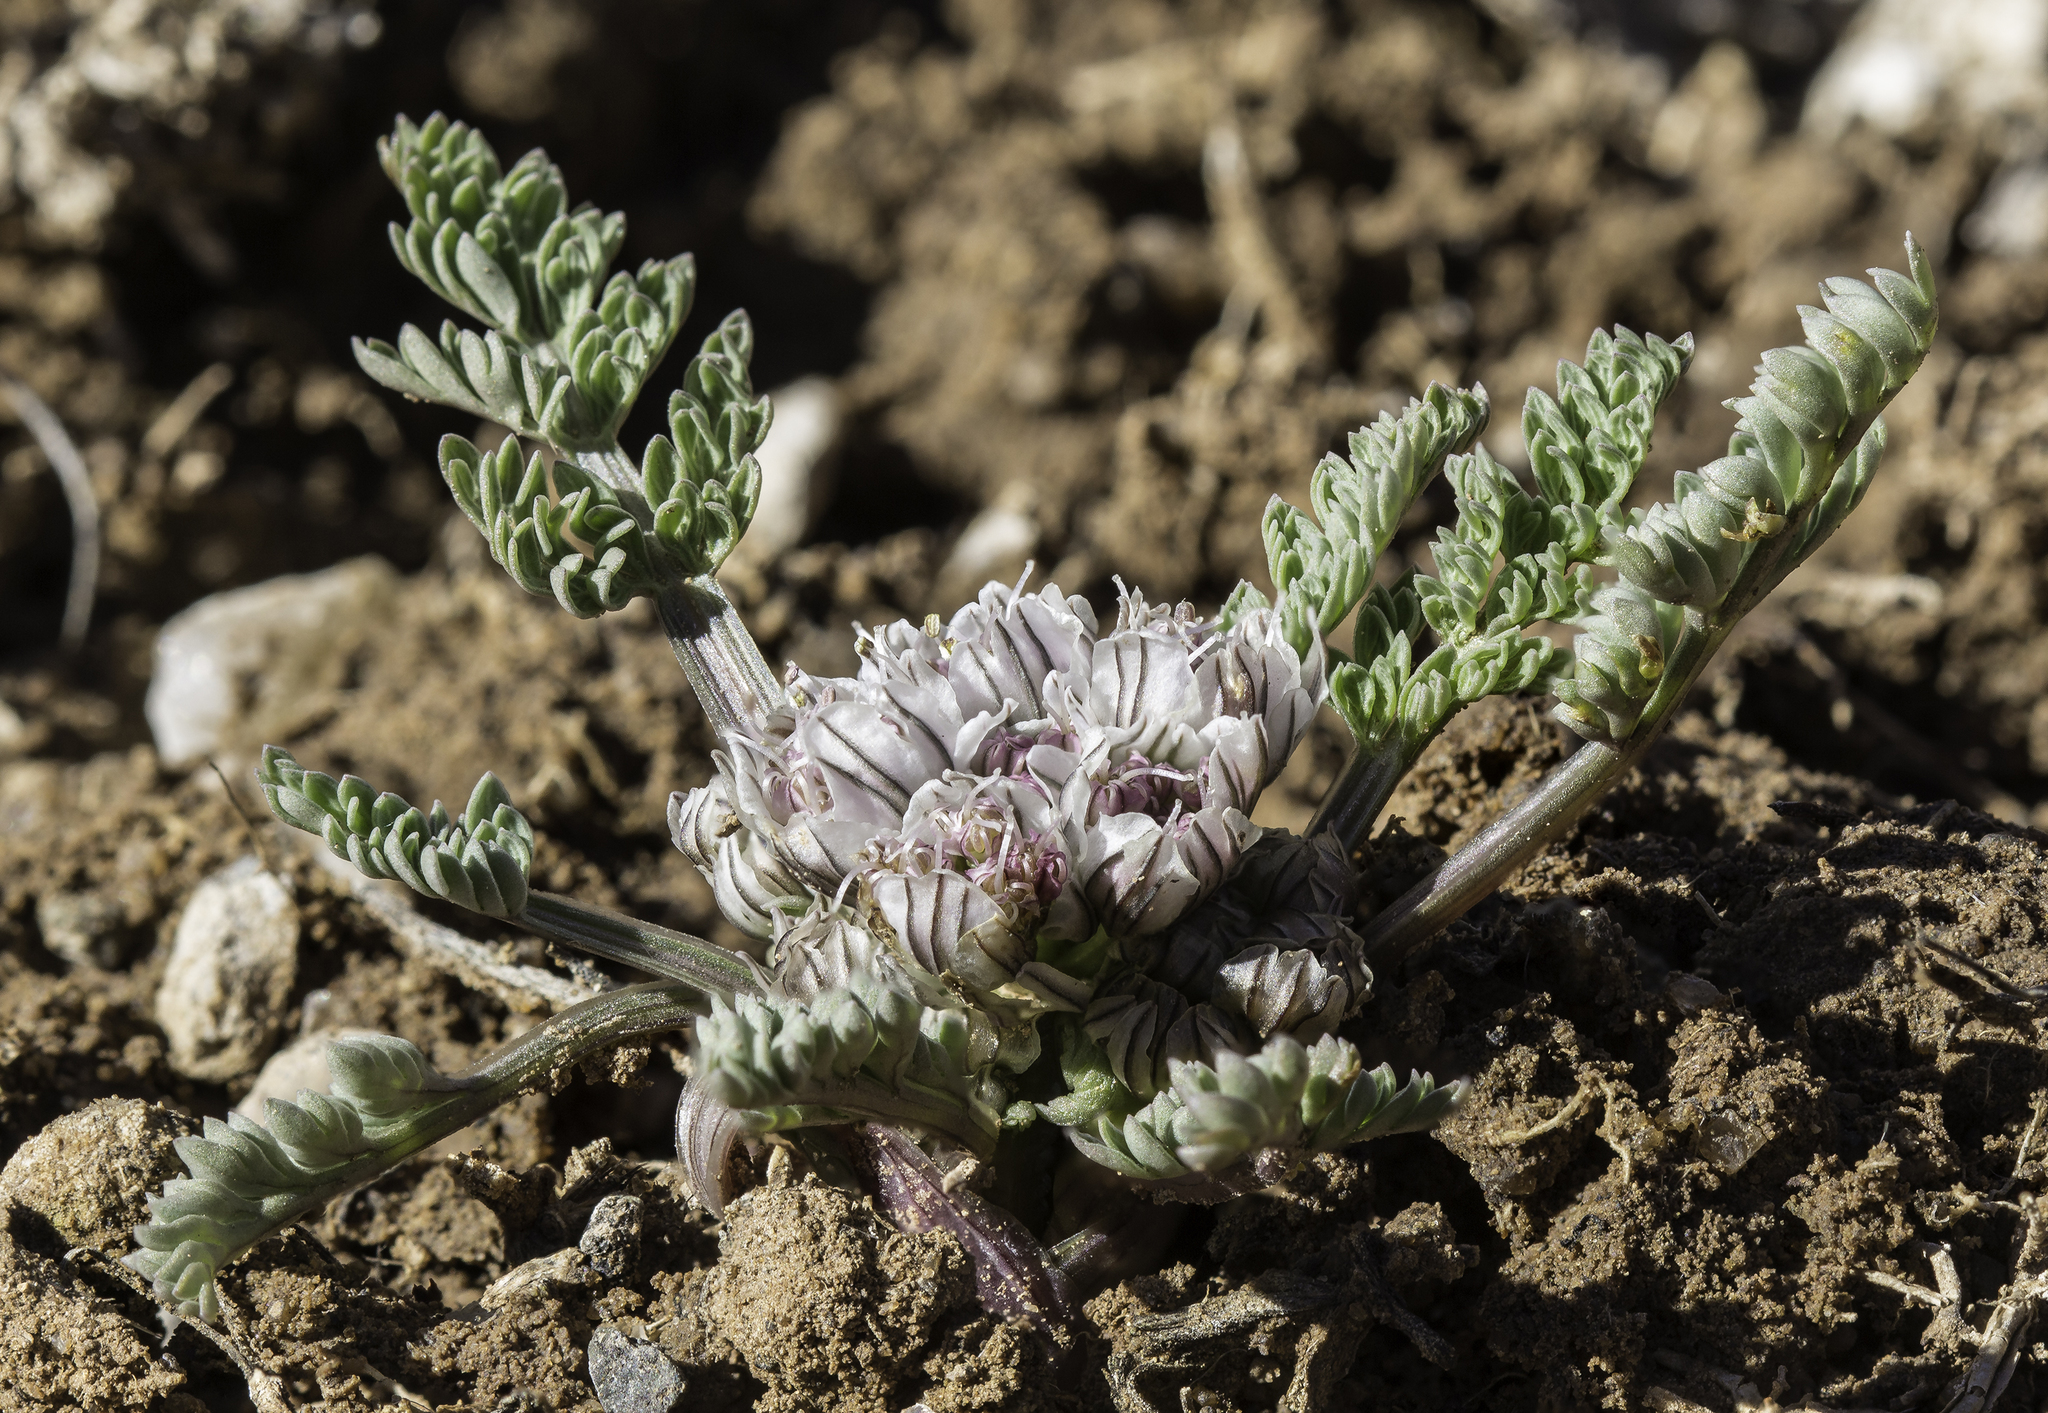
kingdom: Plantae
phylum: Tracheophyta
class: Magnoliopsida
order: Apiales
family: Apiaceae
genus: Vesper
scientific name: Vesper constancei
